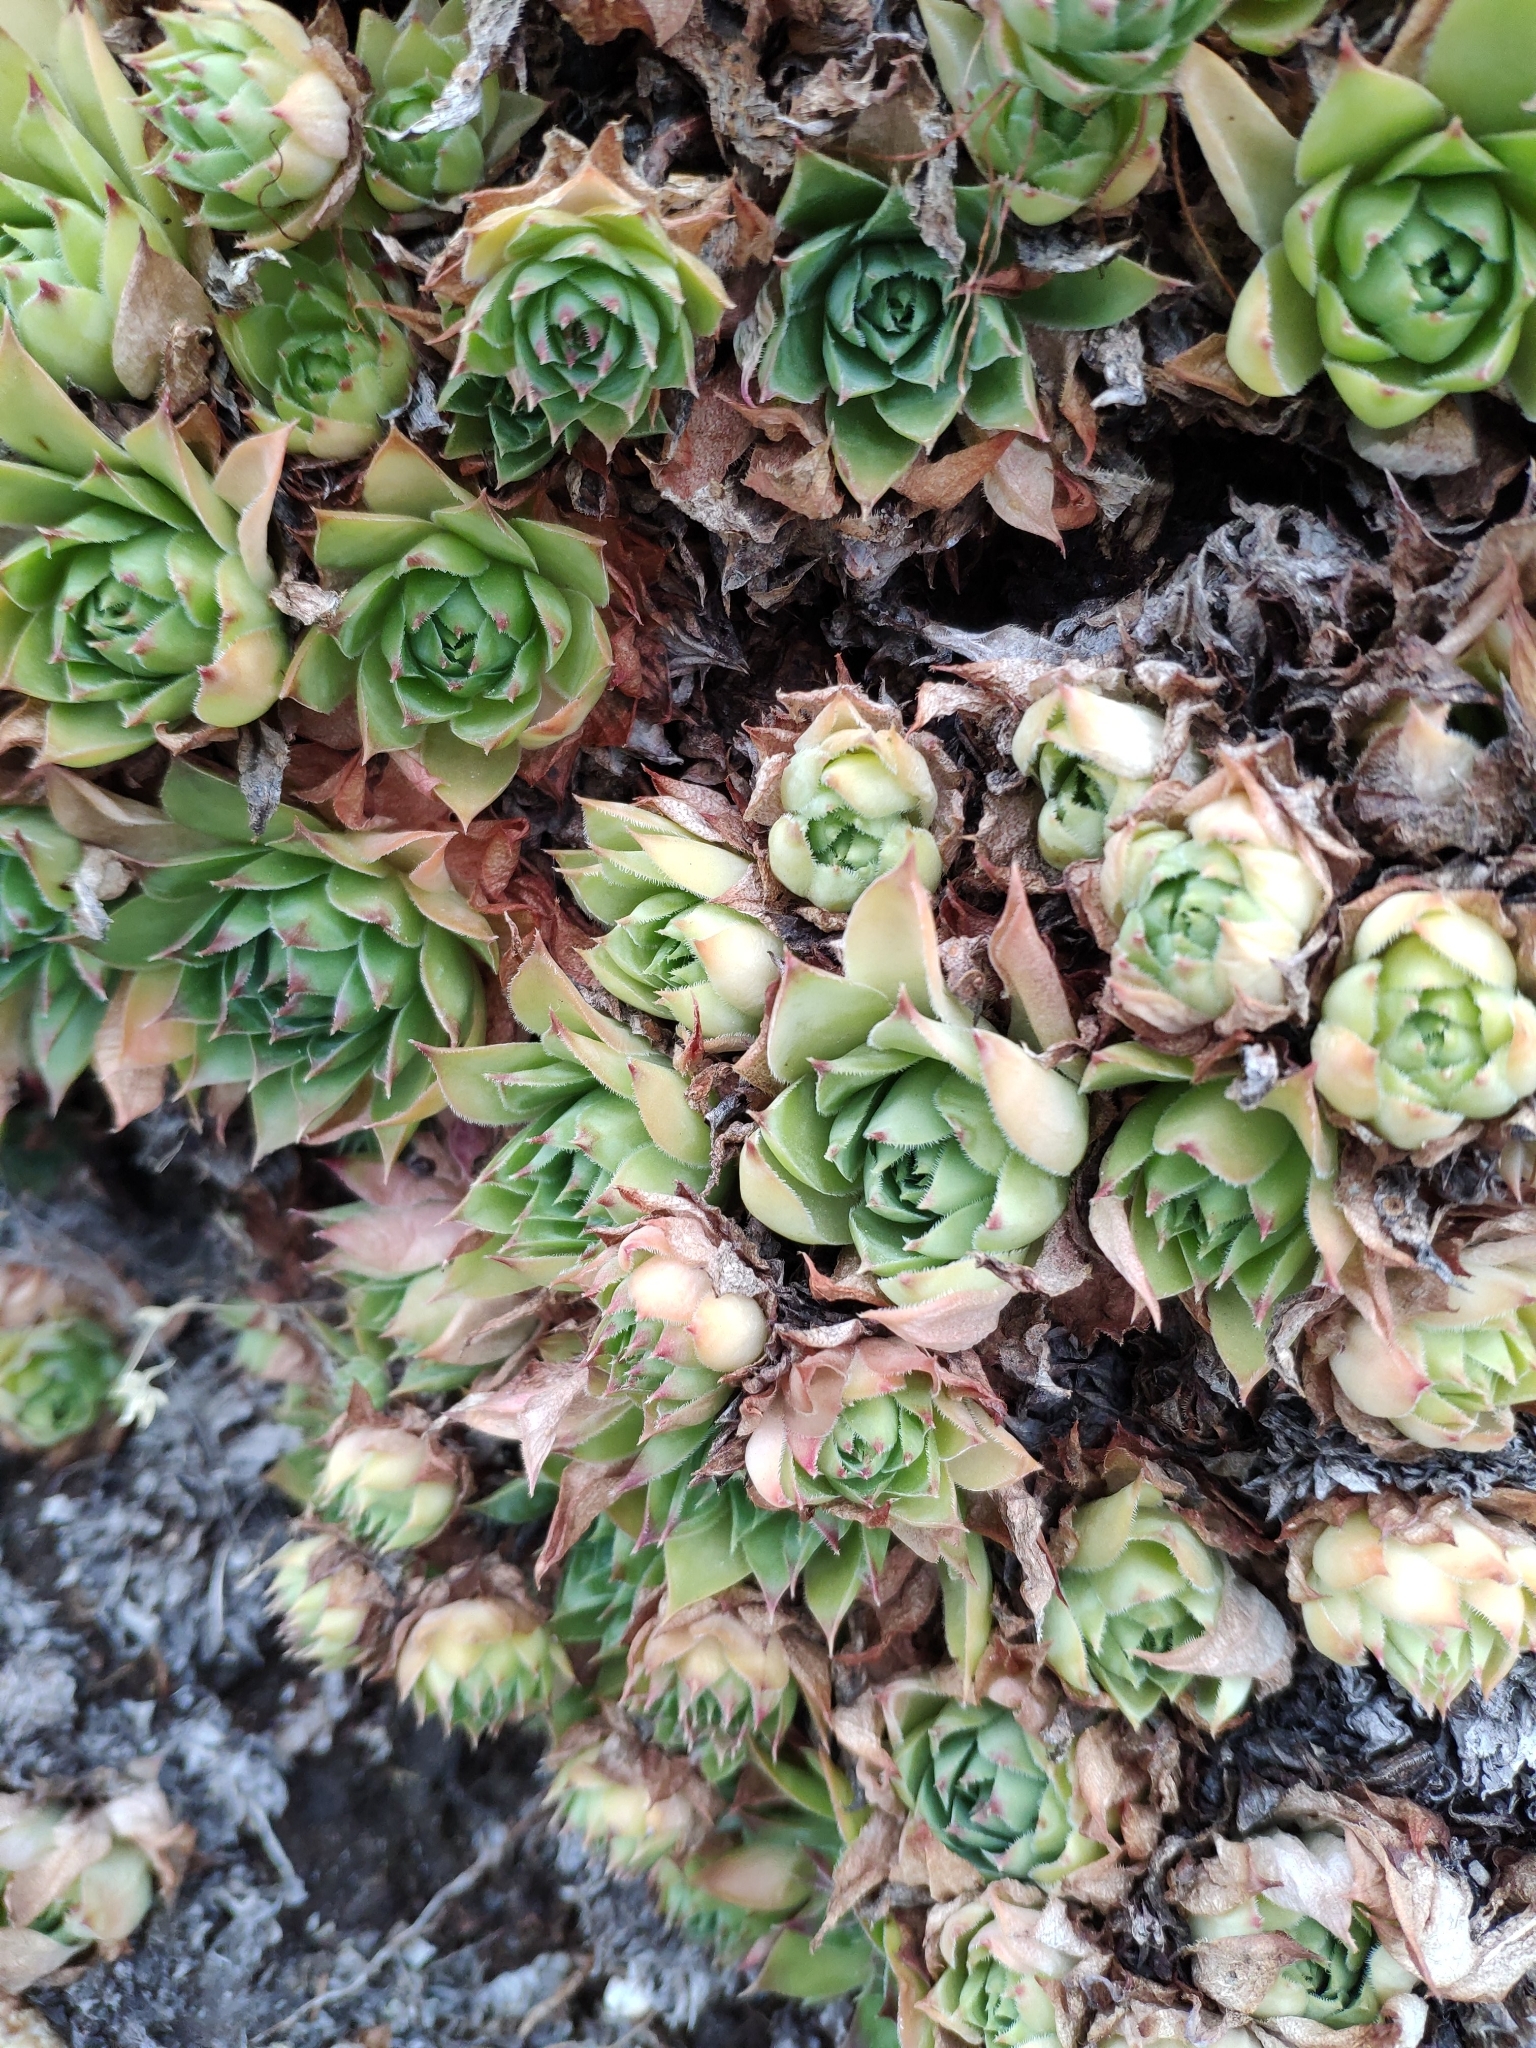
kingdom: Plantae
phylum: Tracheophyta
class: Magnoliopsida
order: Saxifragales
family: Crassulaceae
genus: Sempervivum
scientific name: Sempervivum tectorum
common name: House-leek
